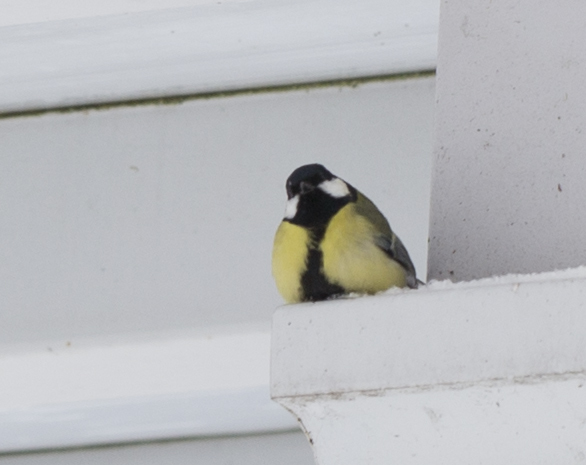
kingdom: Animalia
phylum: Chordata
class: Aves
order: Passeriformes
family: Paridae
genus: Parus
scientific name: Parus major
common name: Great tit
